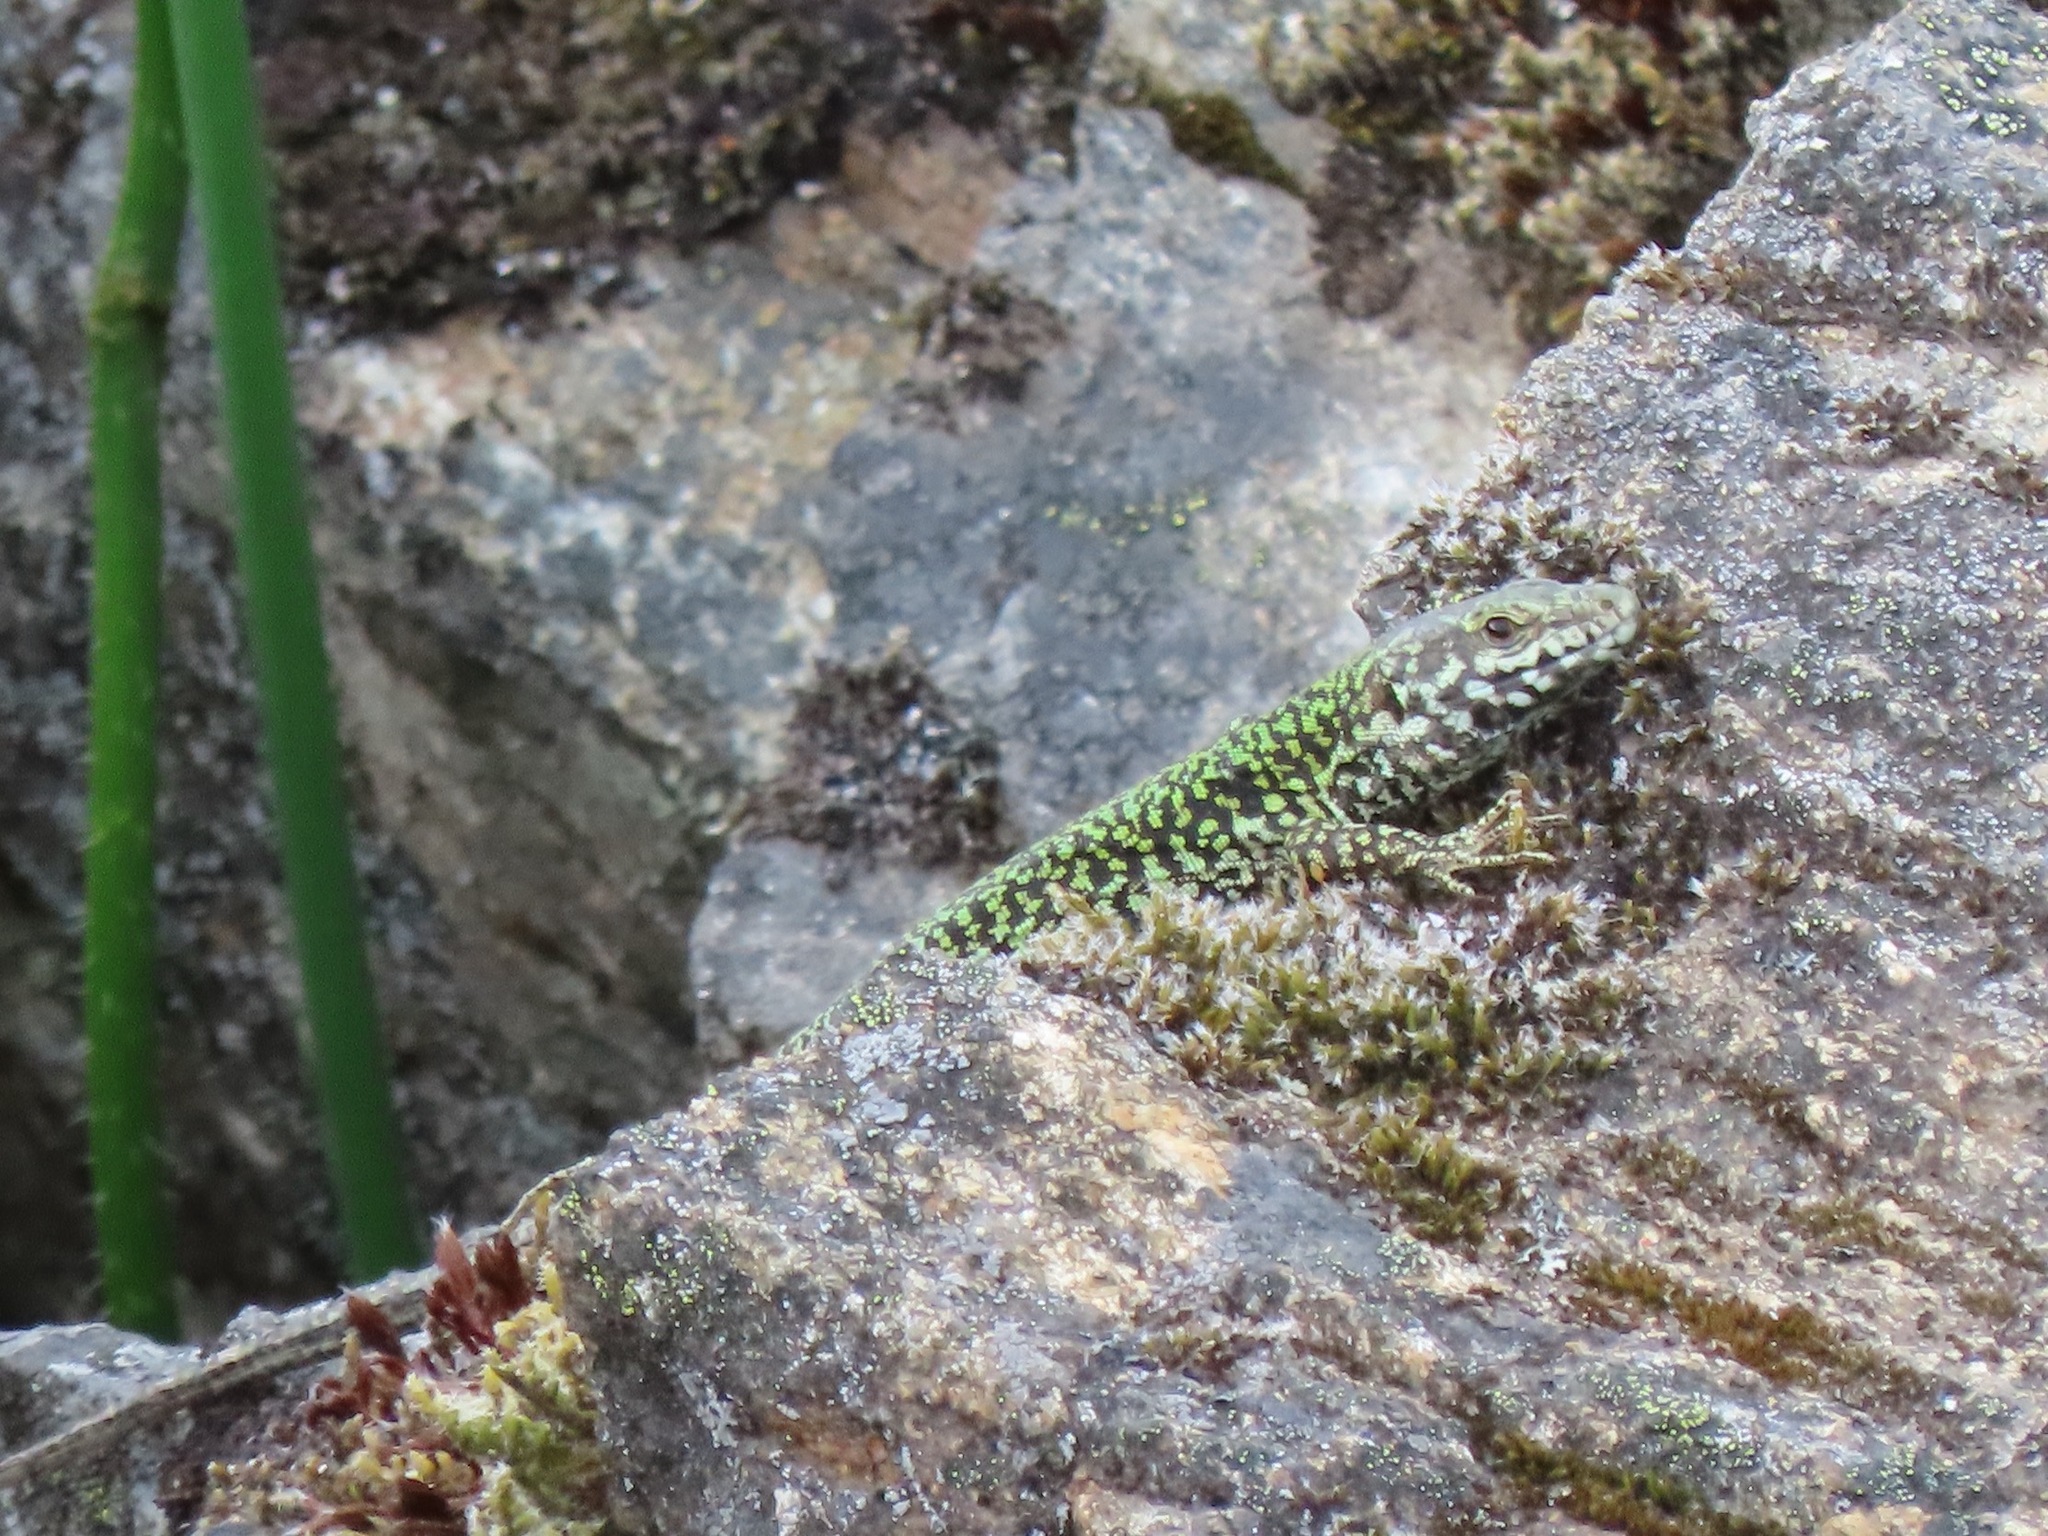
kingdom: Animalia
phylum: Chordata
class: Squamata
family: Lacertidae
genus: Podarcis
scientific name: Podarcis muralis
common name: Common wall lizard
